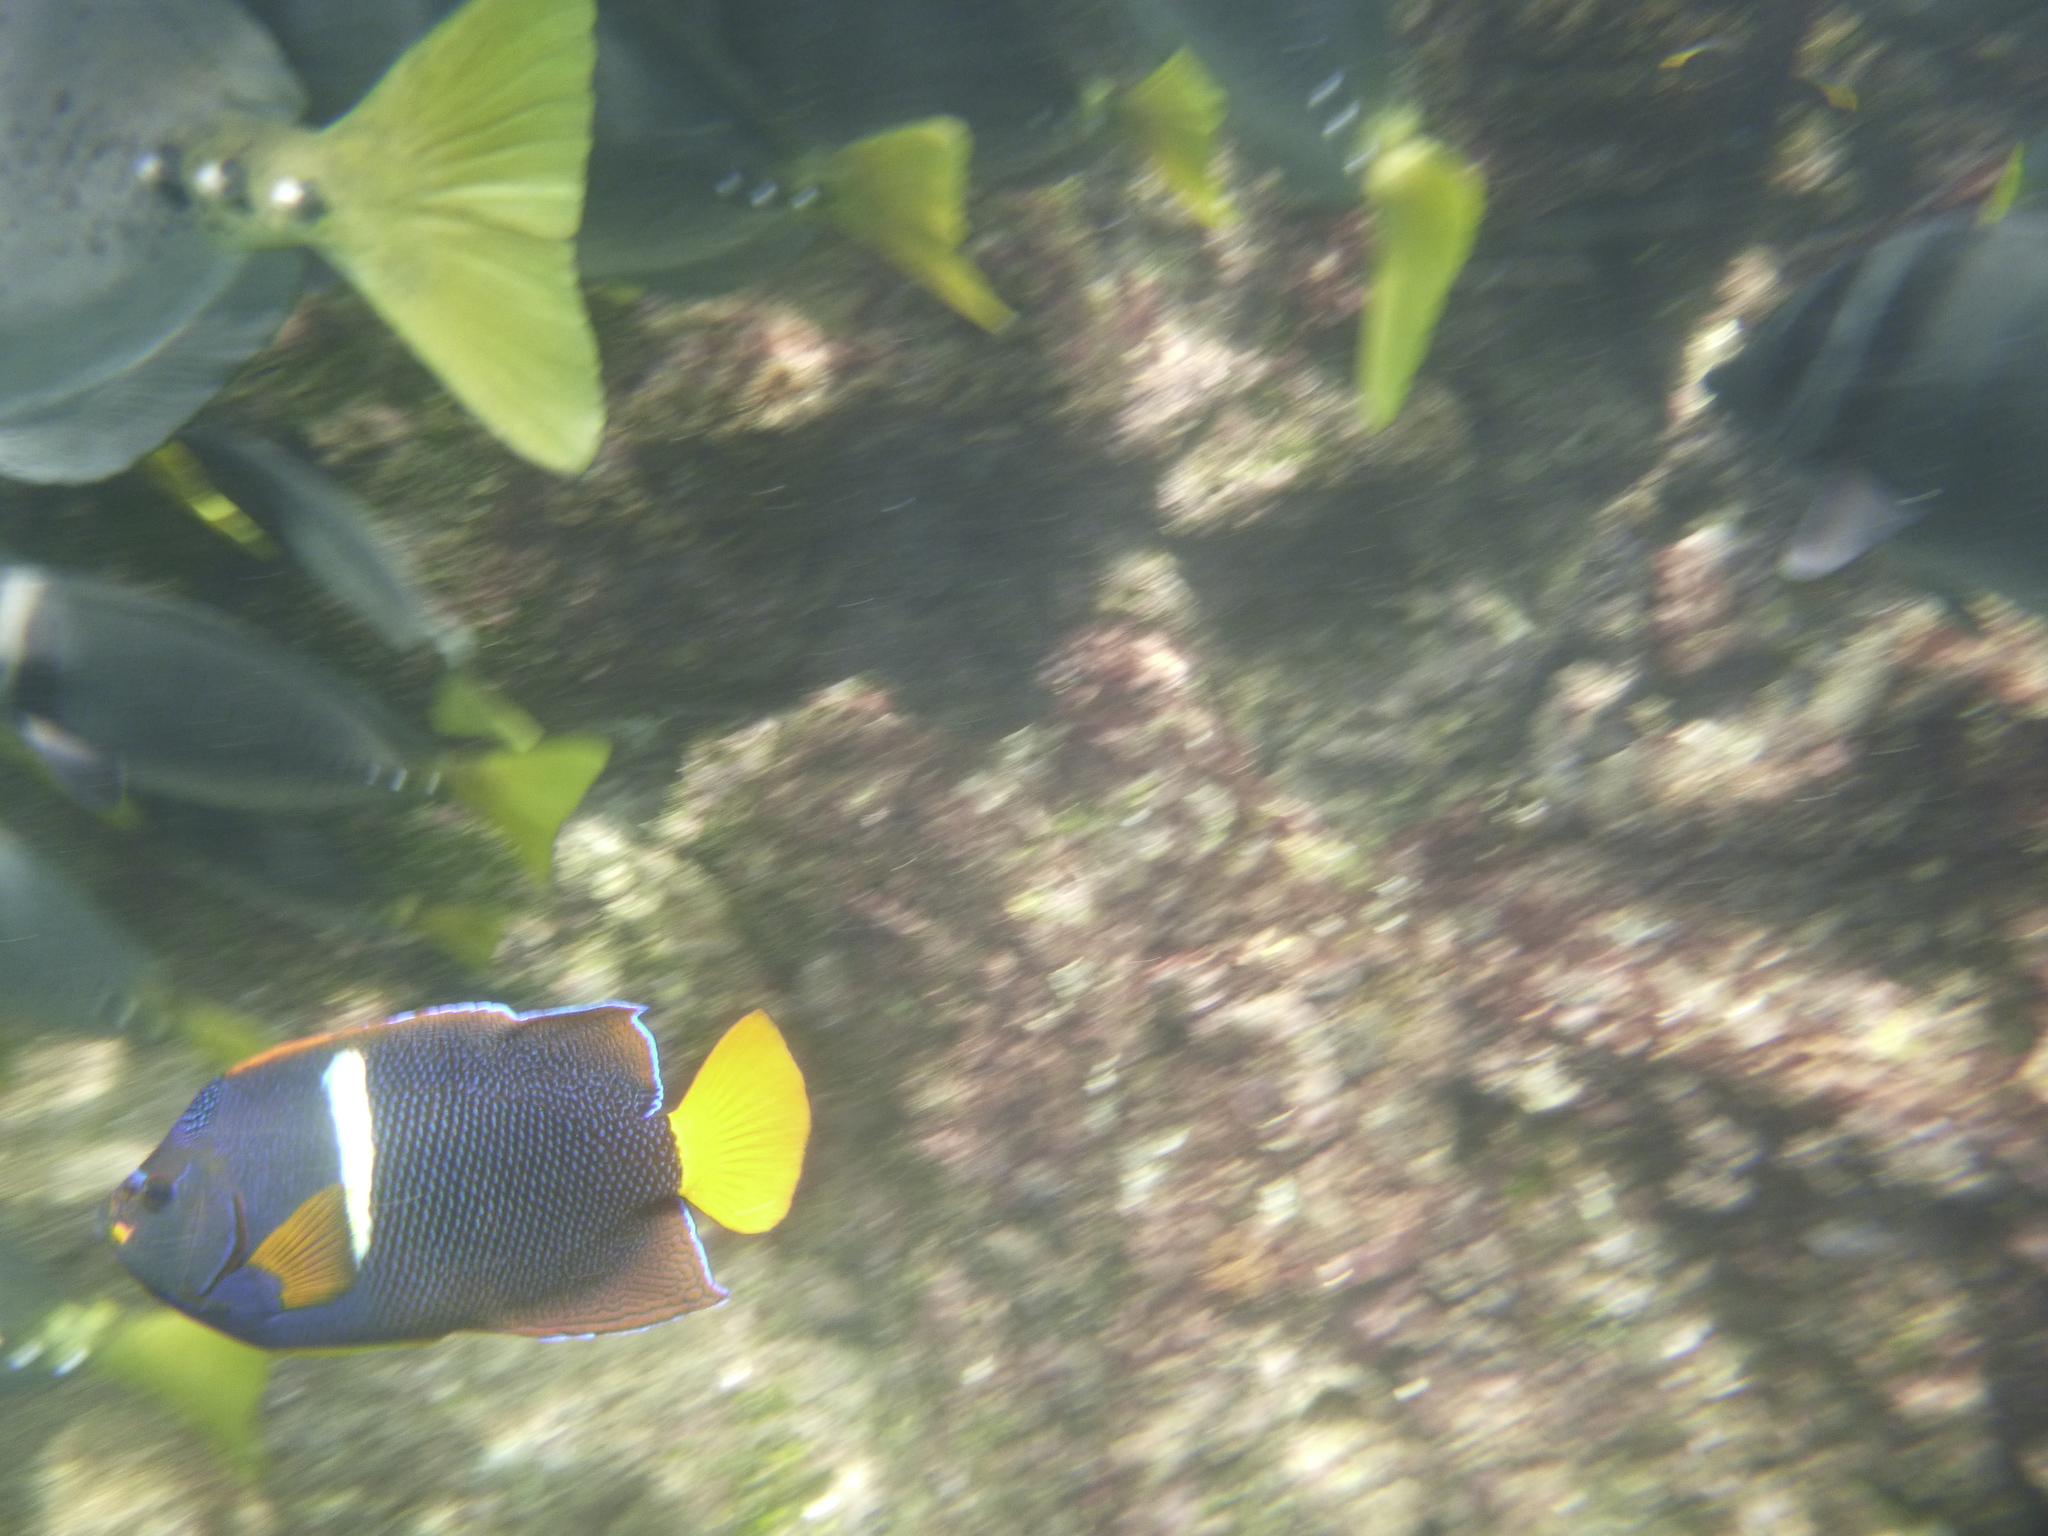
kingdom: Animalia
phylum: Chordata
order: Perciformes
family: Pomacanthidae
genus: Holacanthus
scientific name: Holacanthus passer
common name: King angelfish
